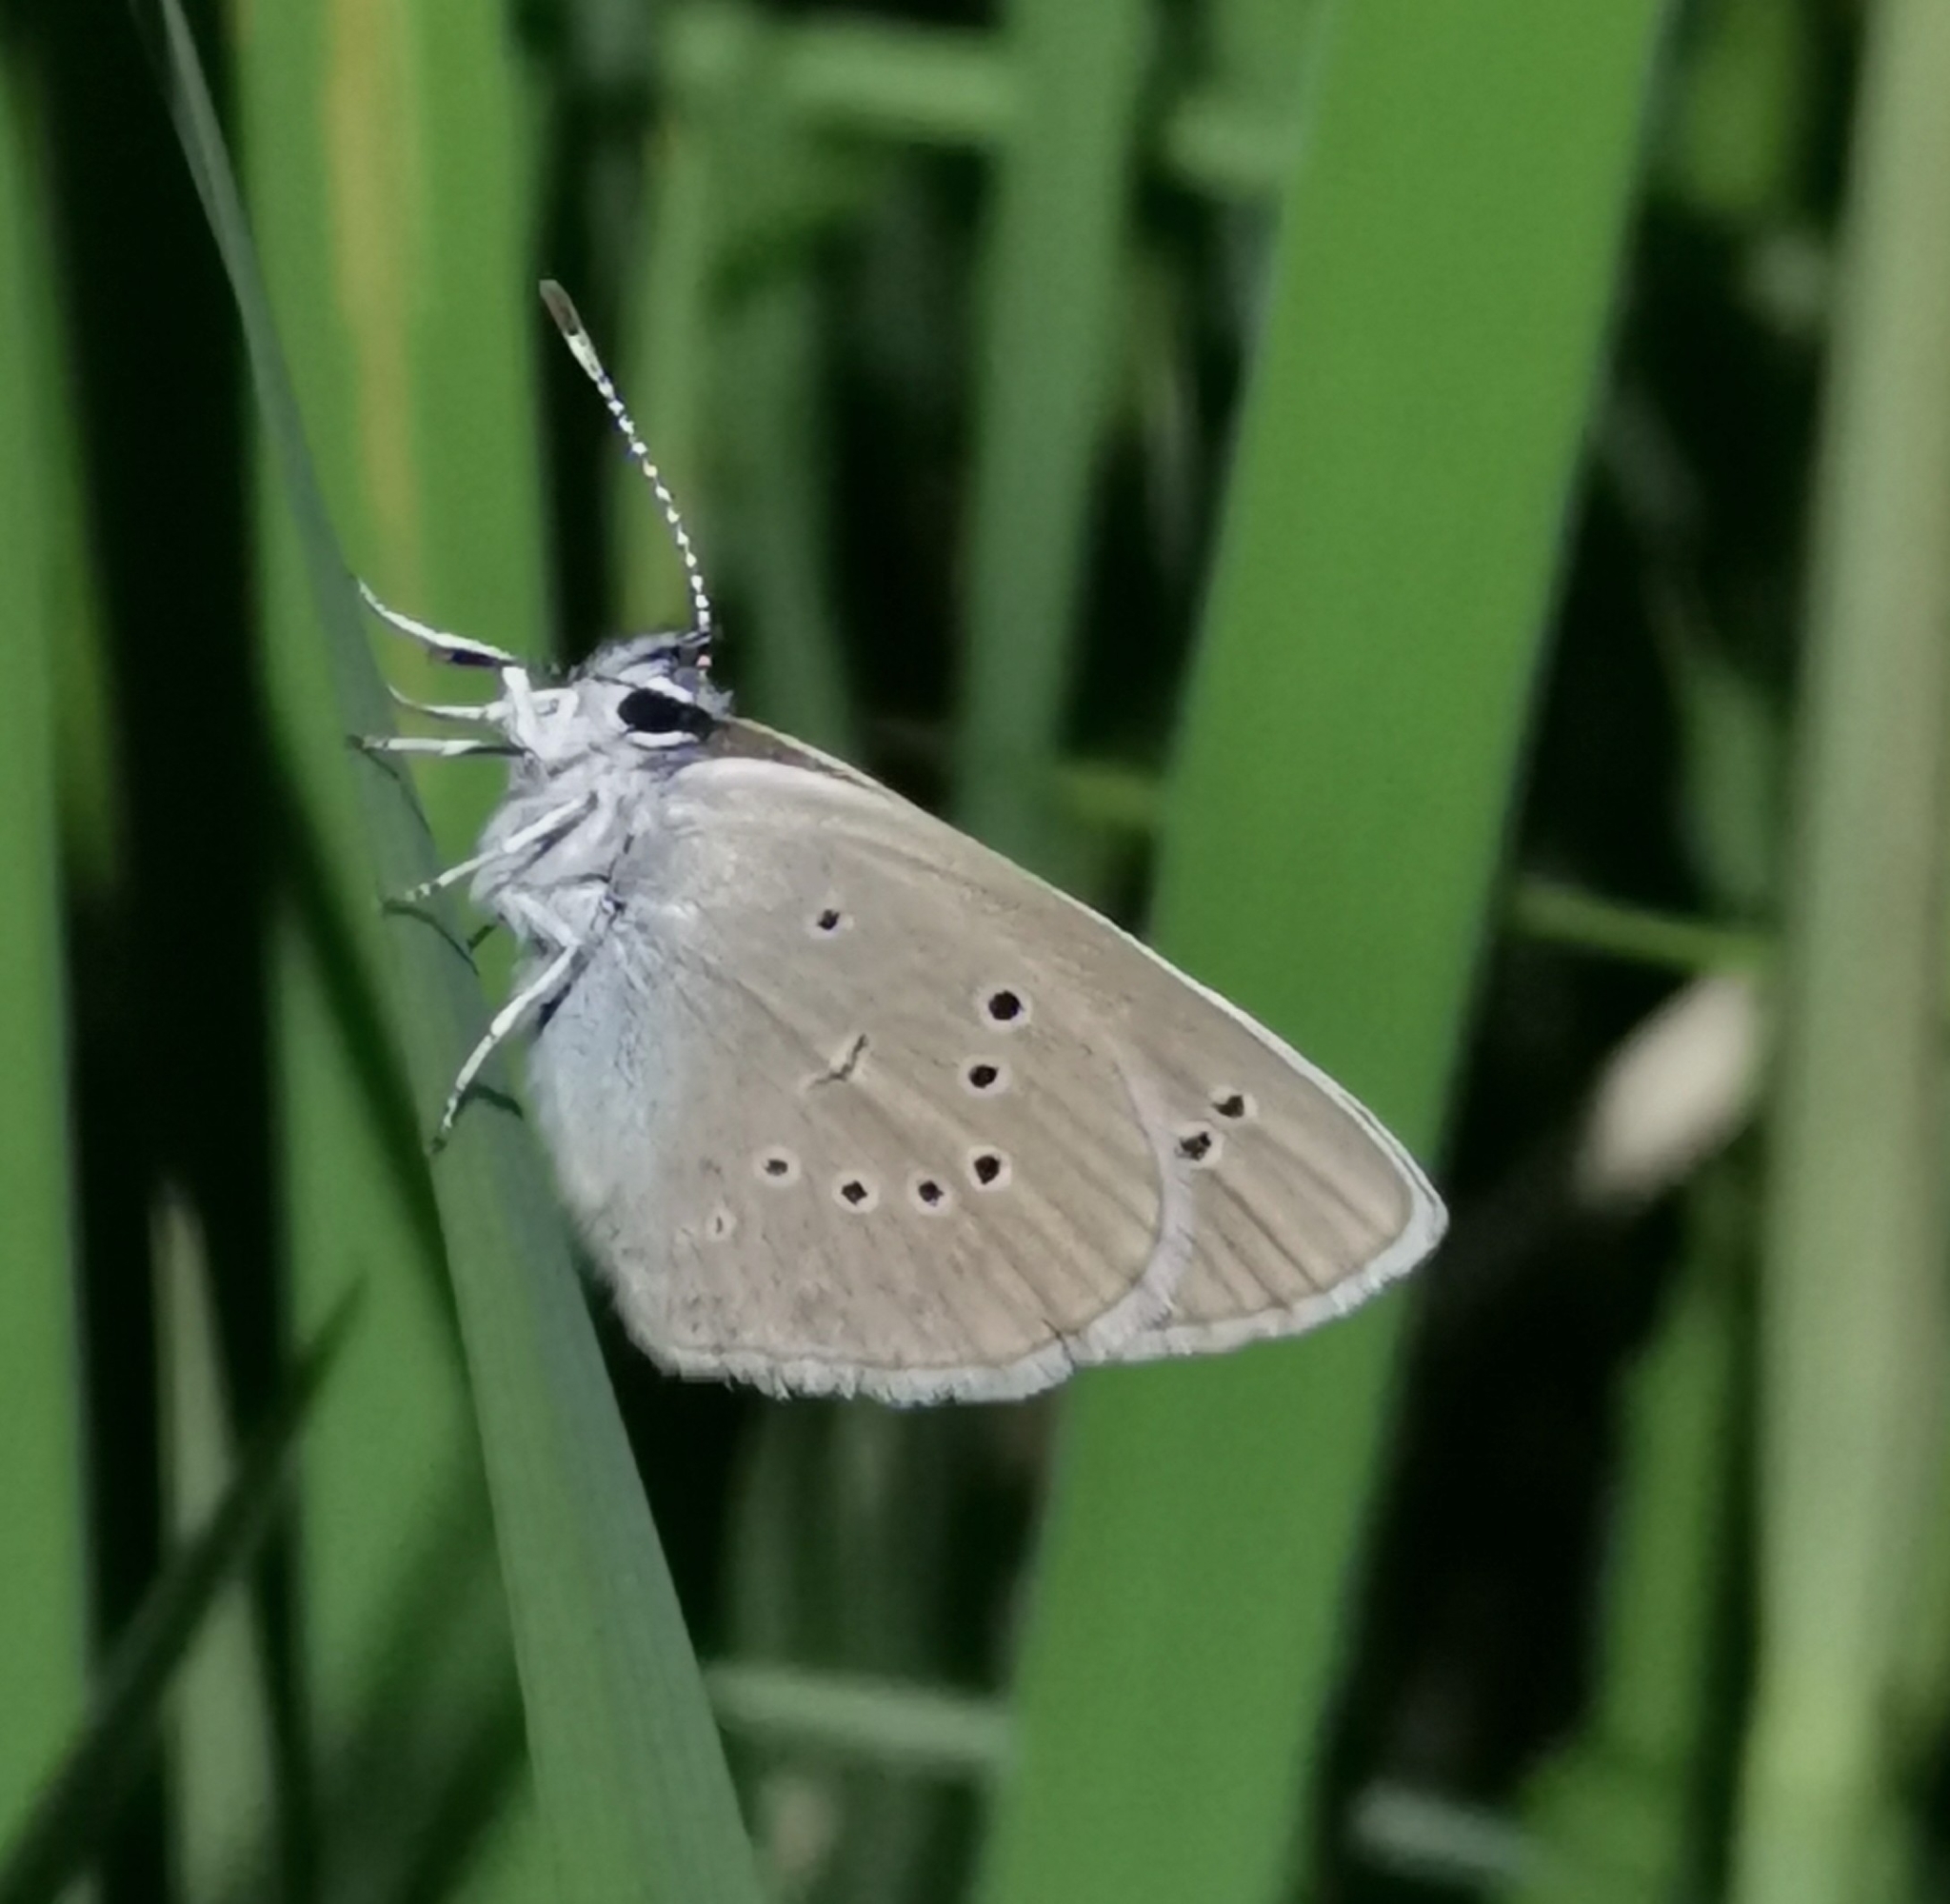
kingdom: Animalia
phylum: Arthropoda
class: Insecta
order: Lepidoptera
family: Lycaenidae
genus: Cyaniris
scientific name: Cyaniris semiargus
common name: Mazarine blue
